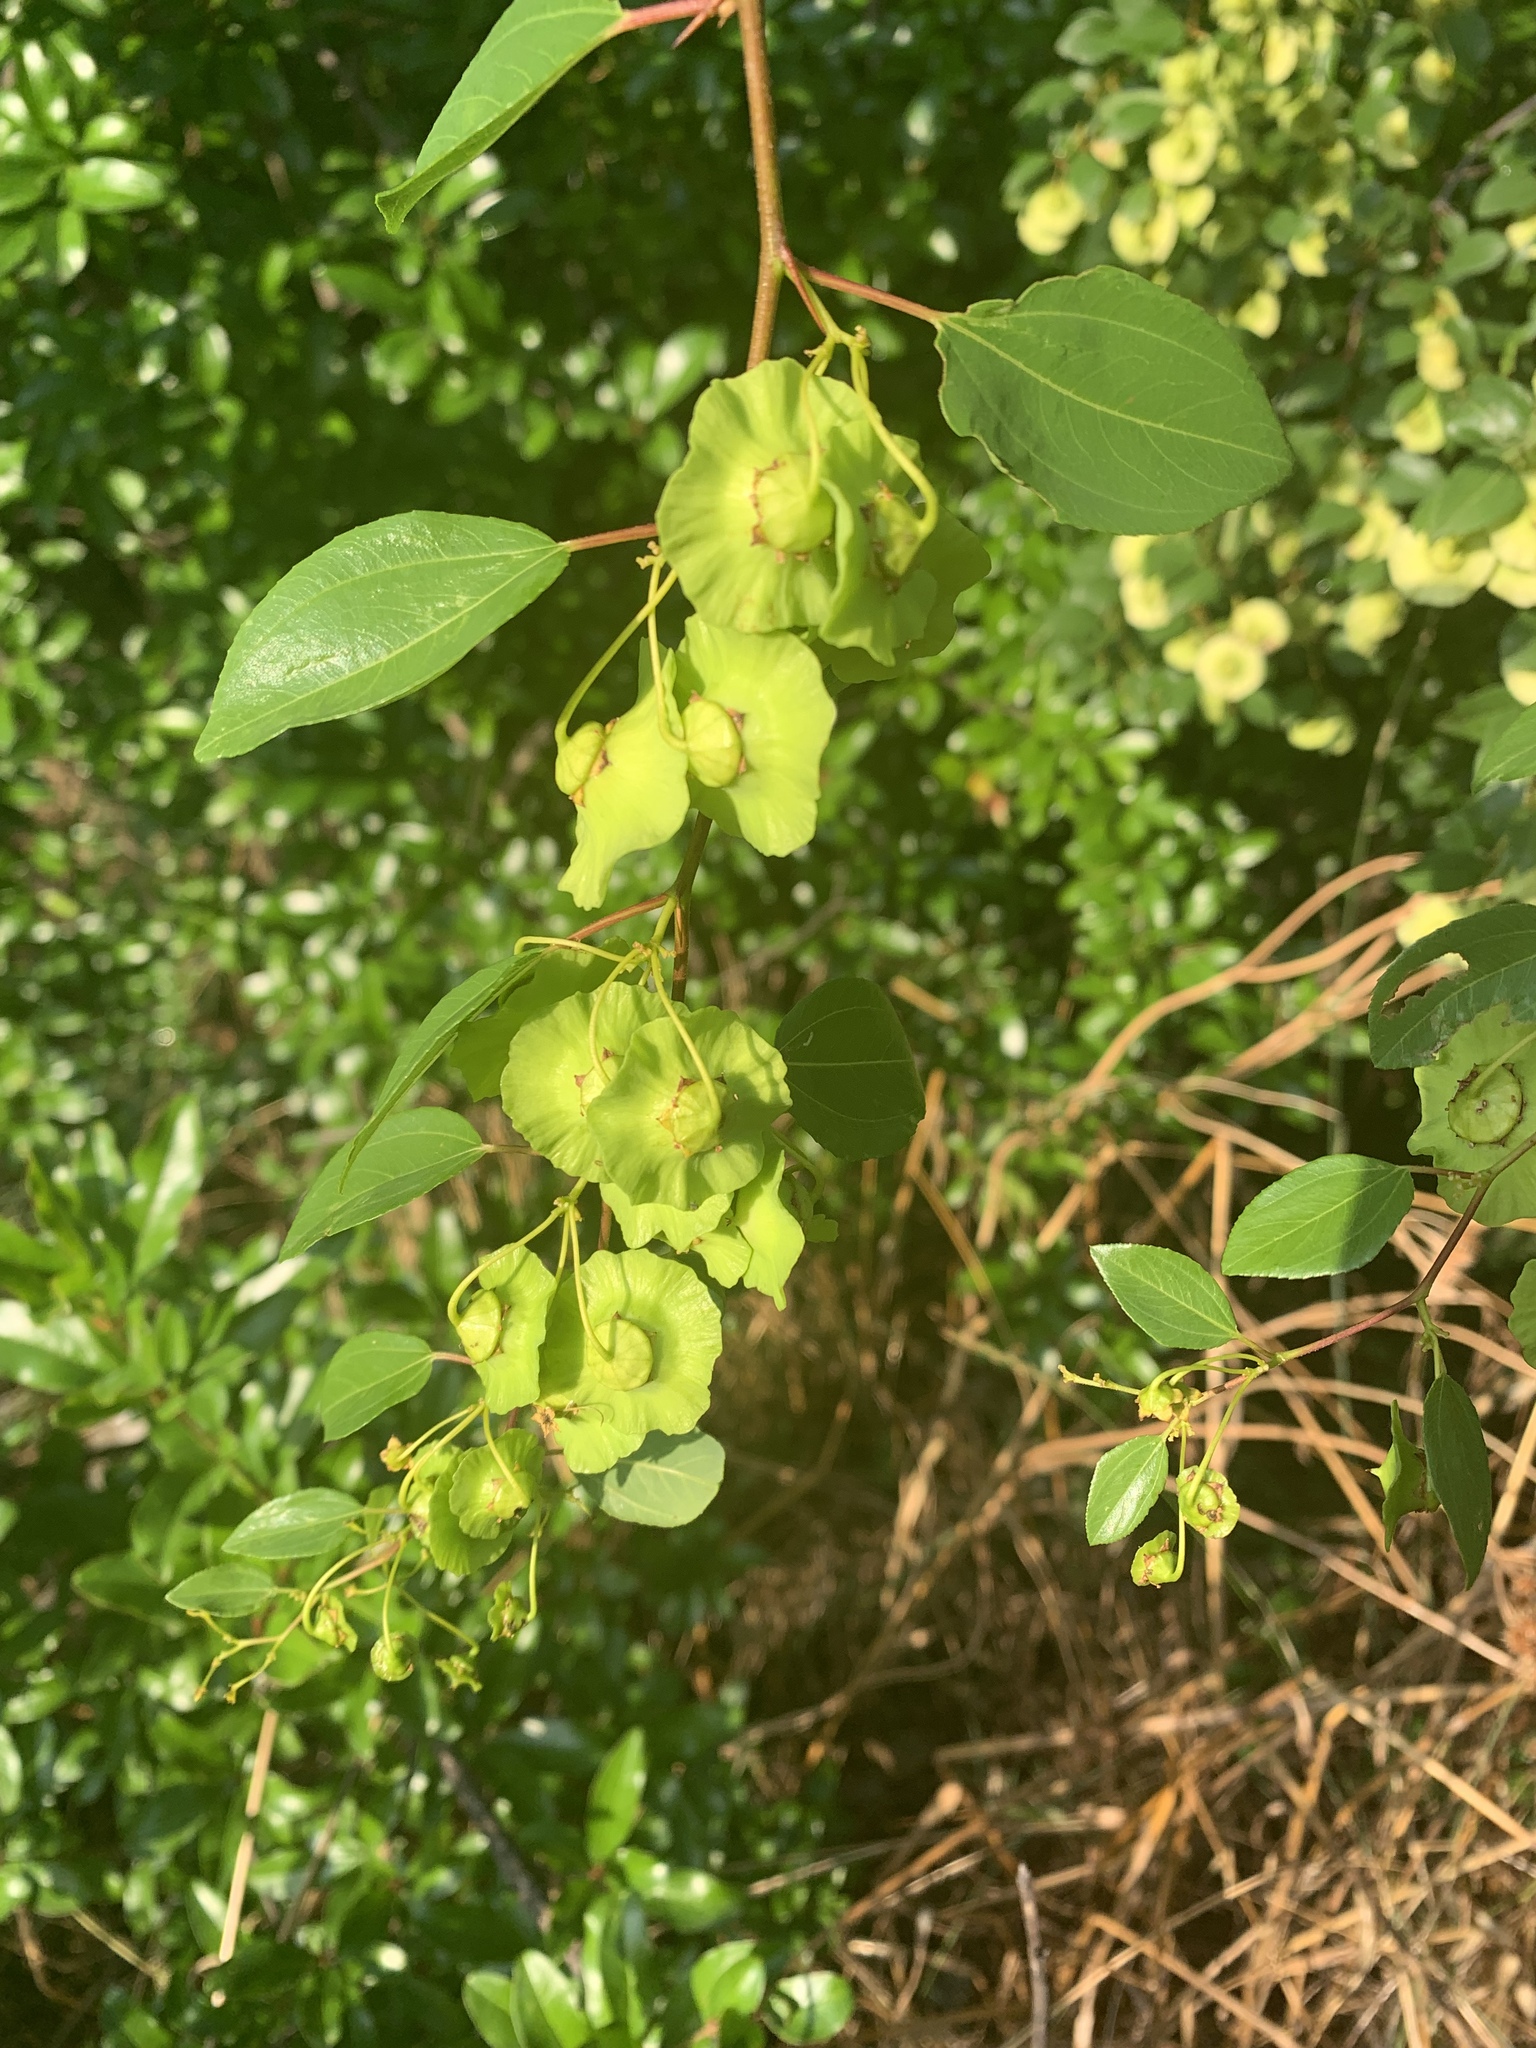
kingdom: Plantae
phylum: Tracheophyta
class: Magnoliopsida
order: Rosales
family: Rhamnaceae
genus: Paliurus
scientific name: Paliurus spina-christi
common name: Jeruselem thorn
